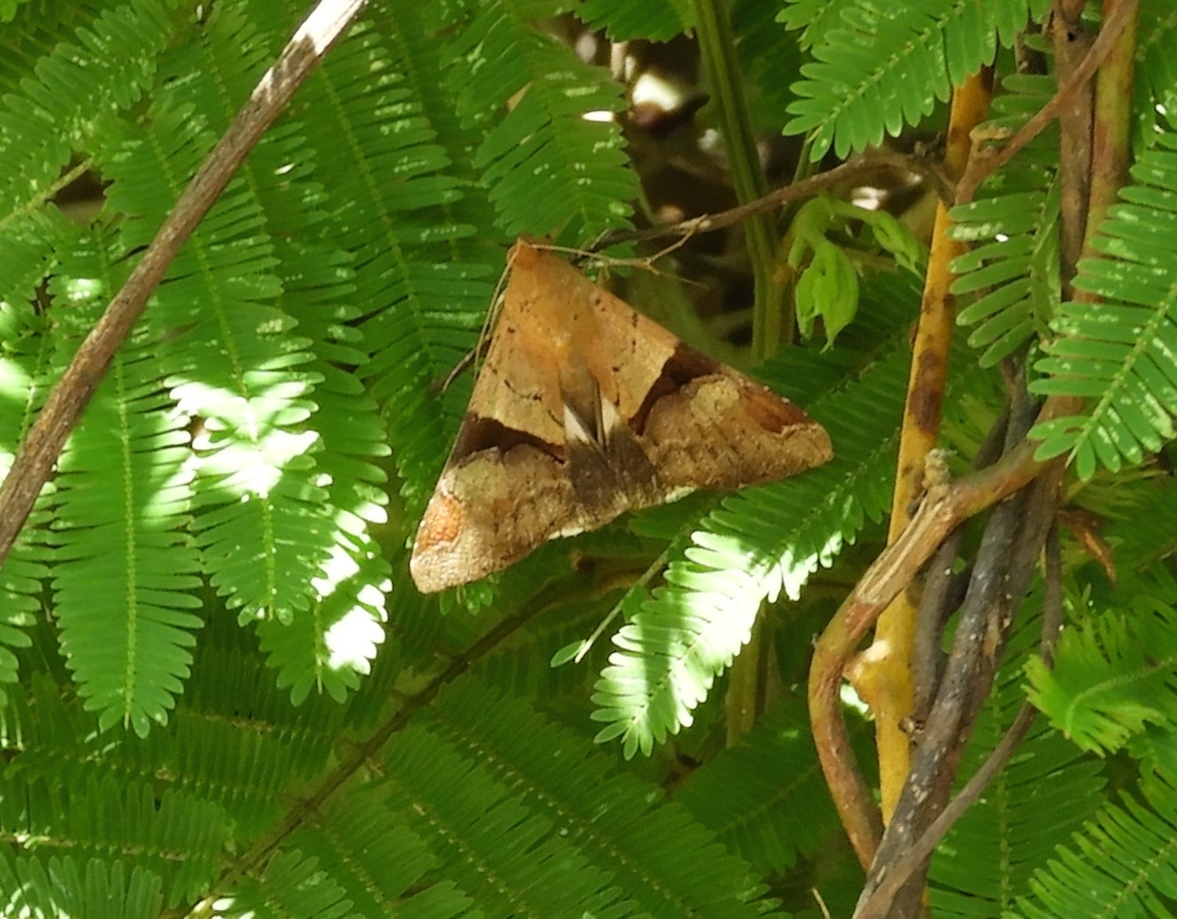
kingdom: Animalia
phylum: Arthropoda
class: Insecta
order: Lepidoptera
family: Erebidae
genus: Melipotis
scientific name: Melipotis fasciolaris
